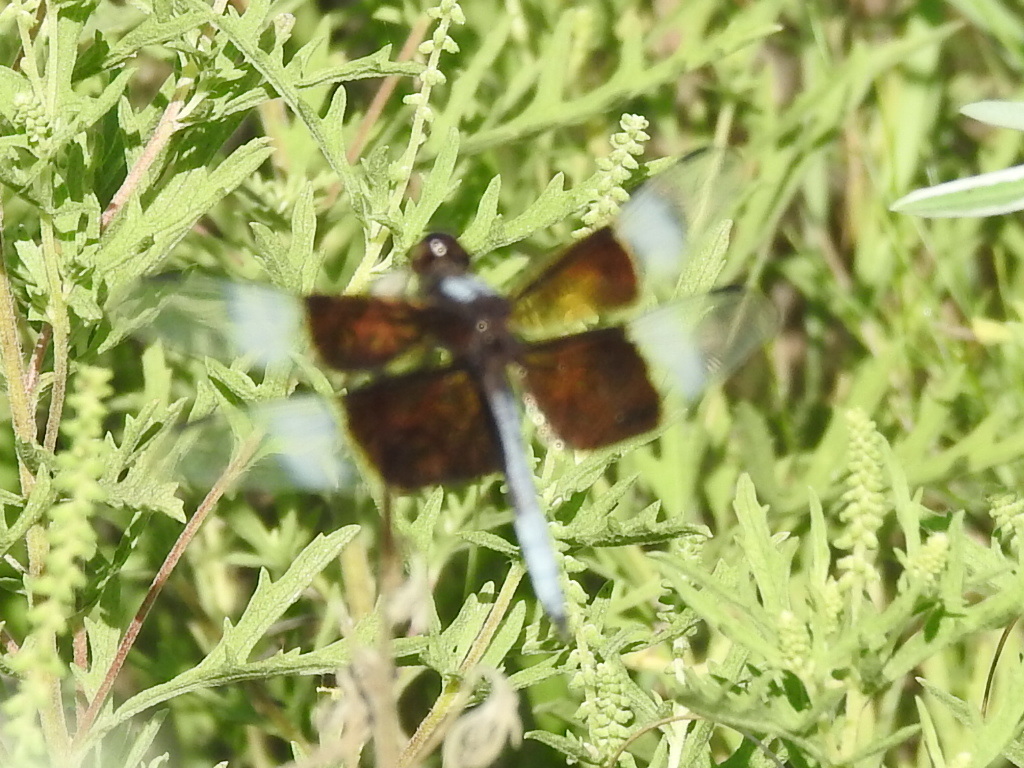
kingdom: Animalia
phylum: Arthropoda
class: Insecta
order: Odonata
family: Libellulidae
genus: Libellula
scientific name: Libellula luctuosa
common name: Widow skimmer
